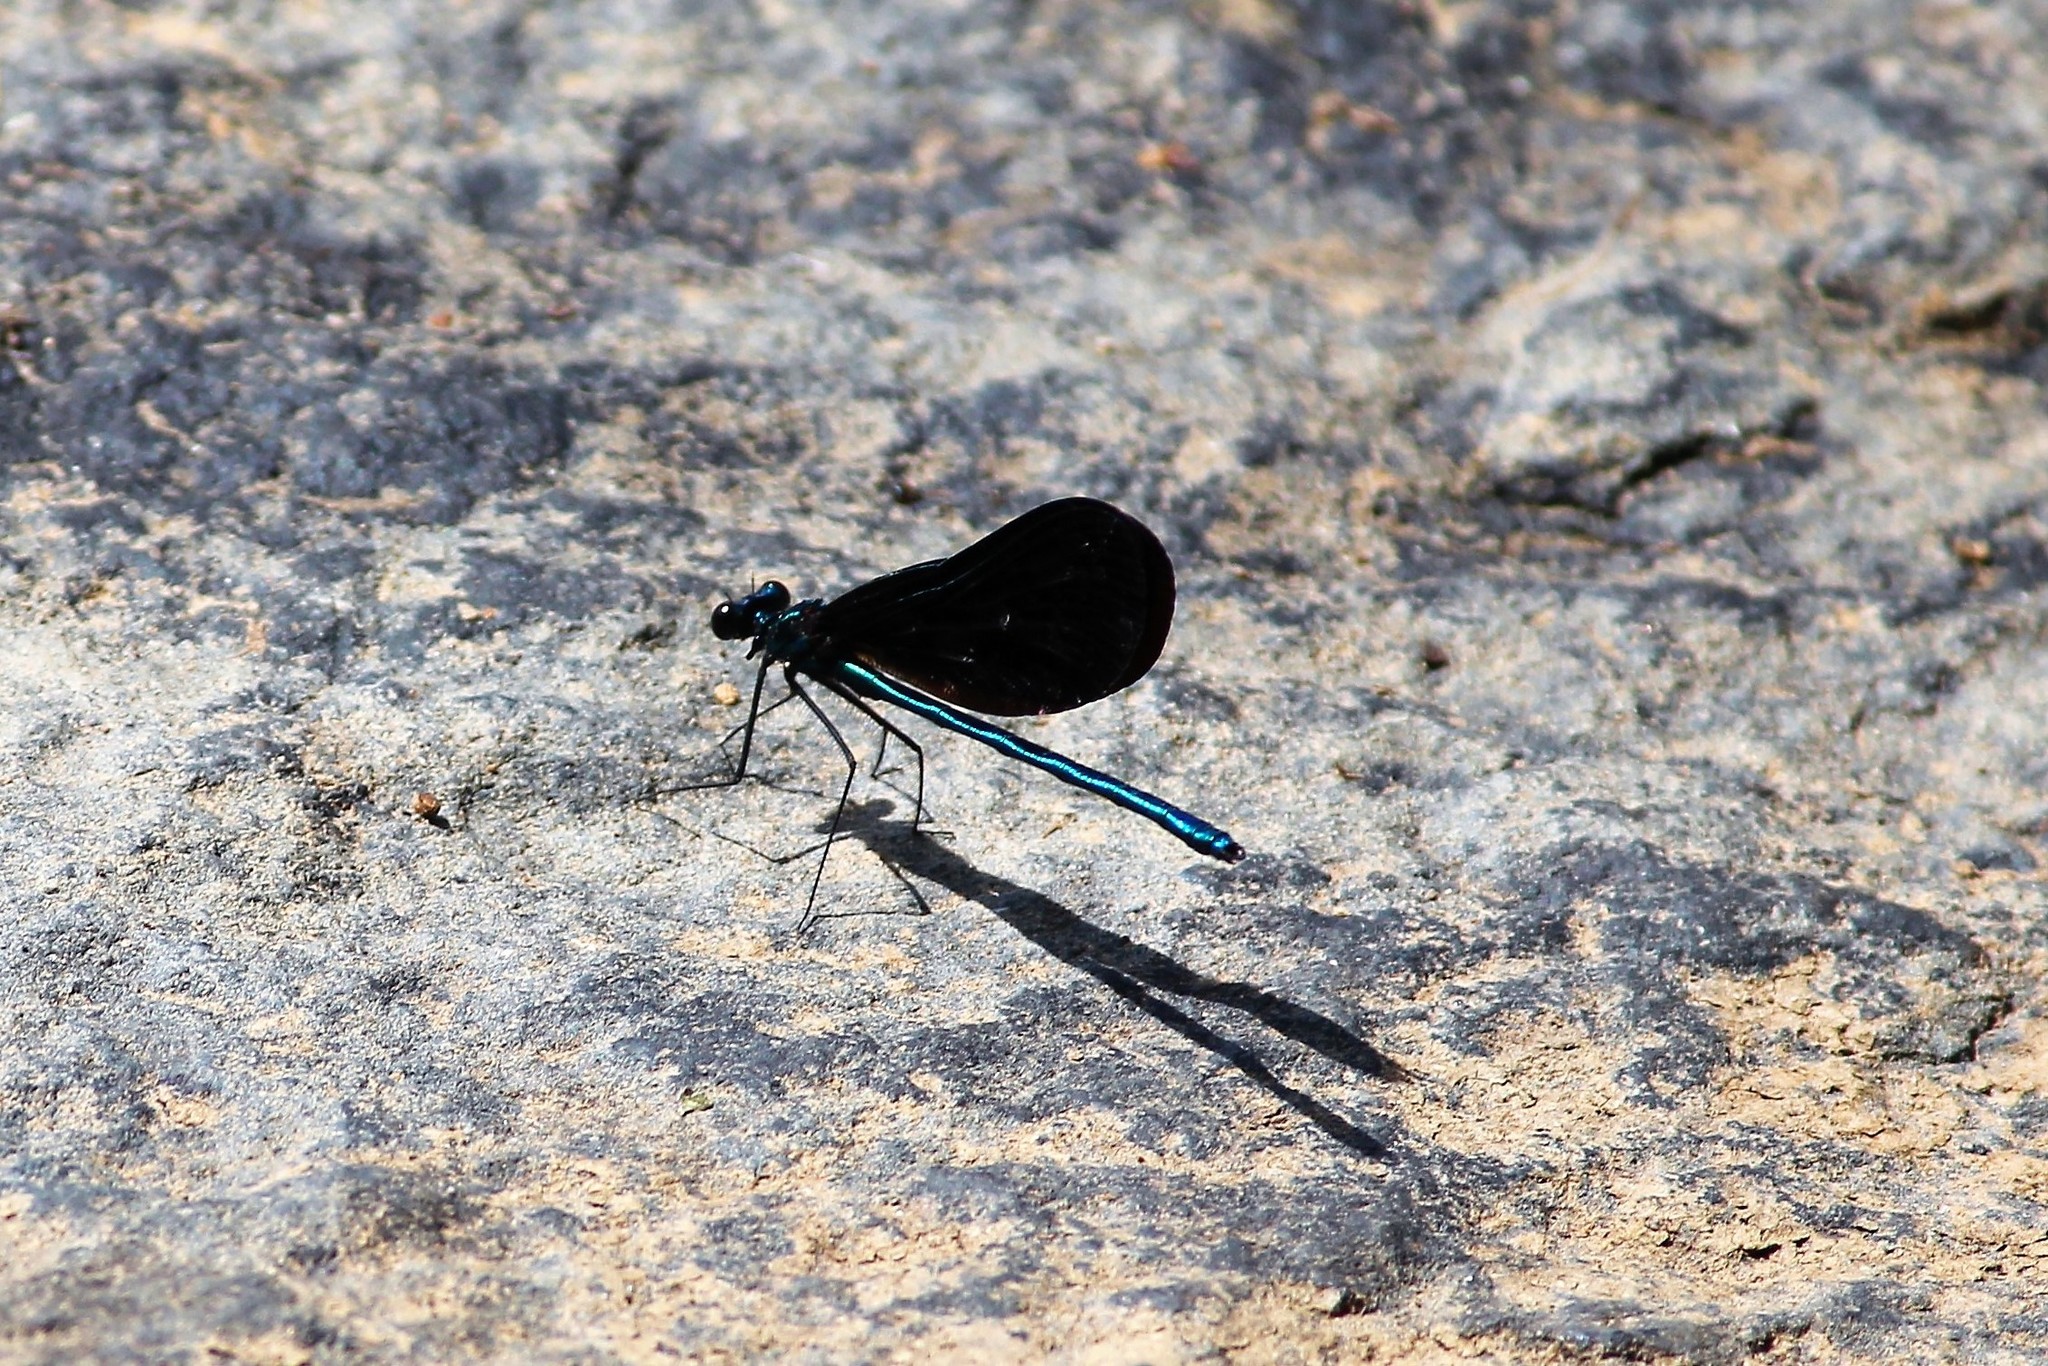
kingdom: Animalia
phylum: Arthropoda
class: Insecta
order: Odonata
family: Calopterygidae
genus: Calopteryx
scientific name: Calopteryx maculata
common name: Ebony jewelwing
